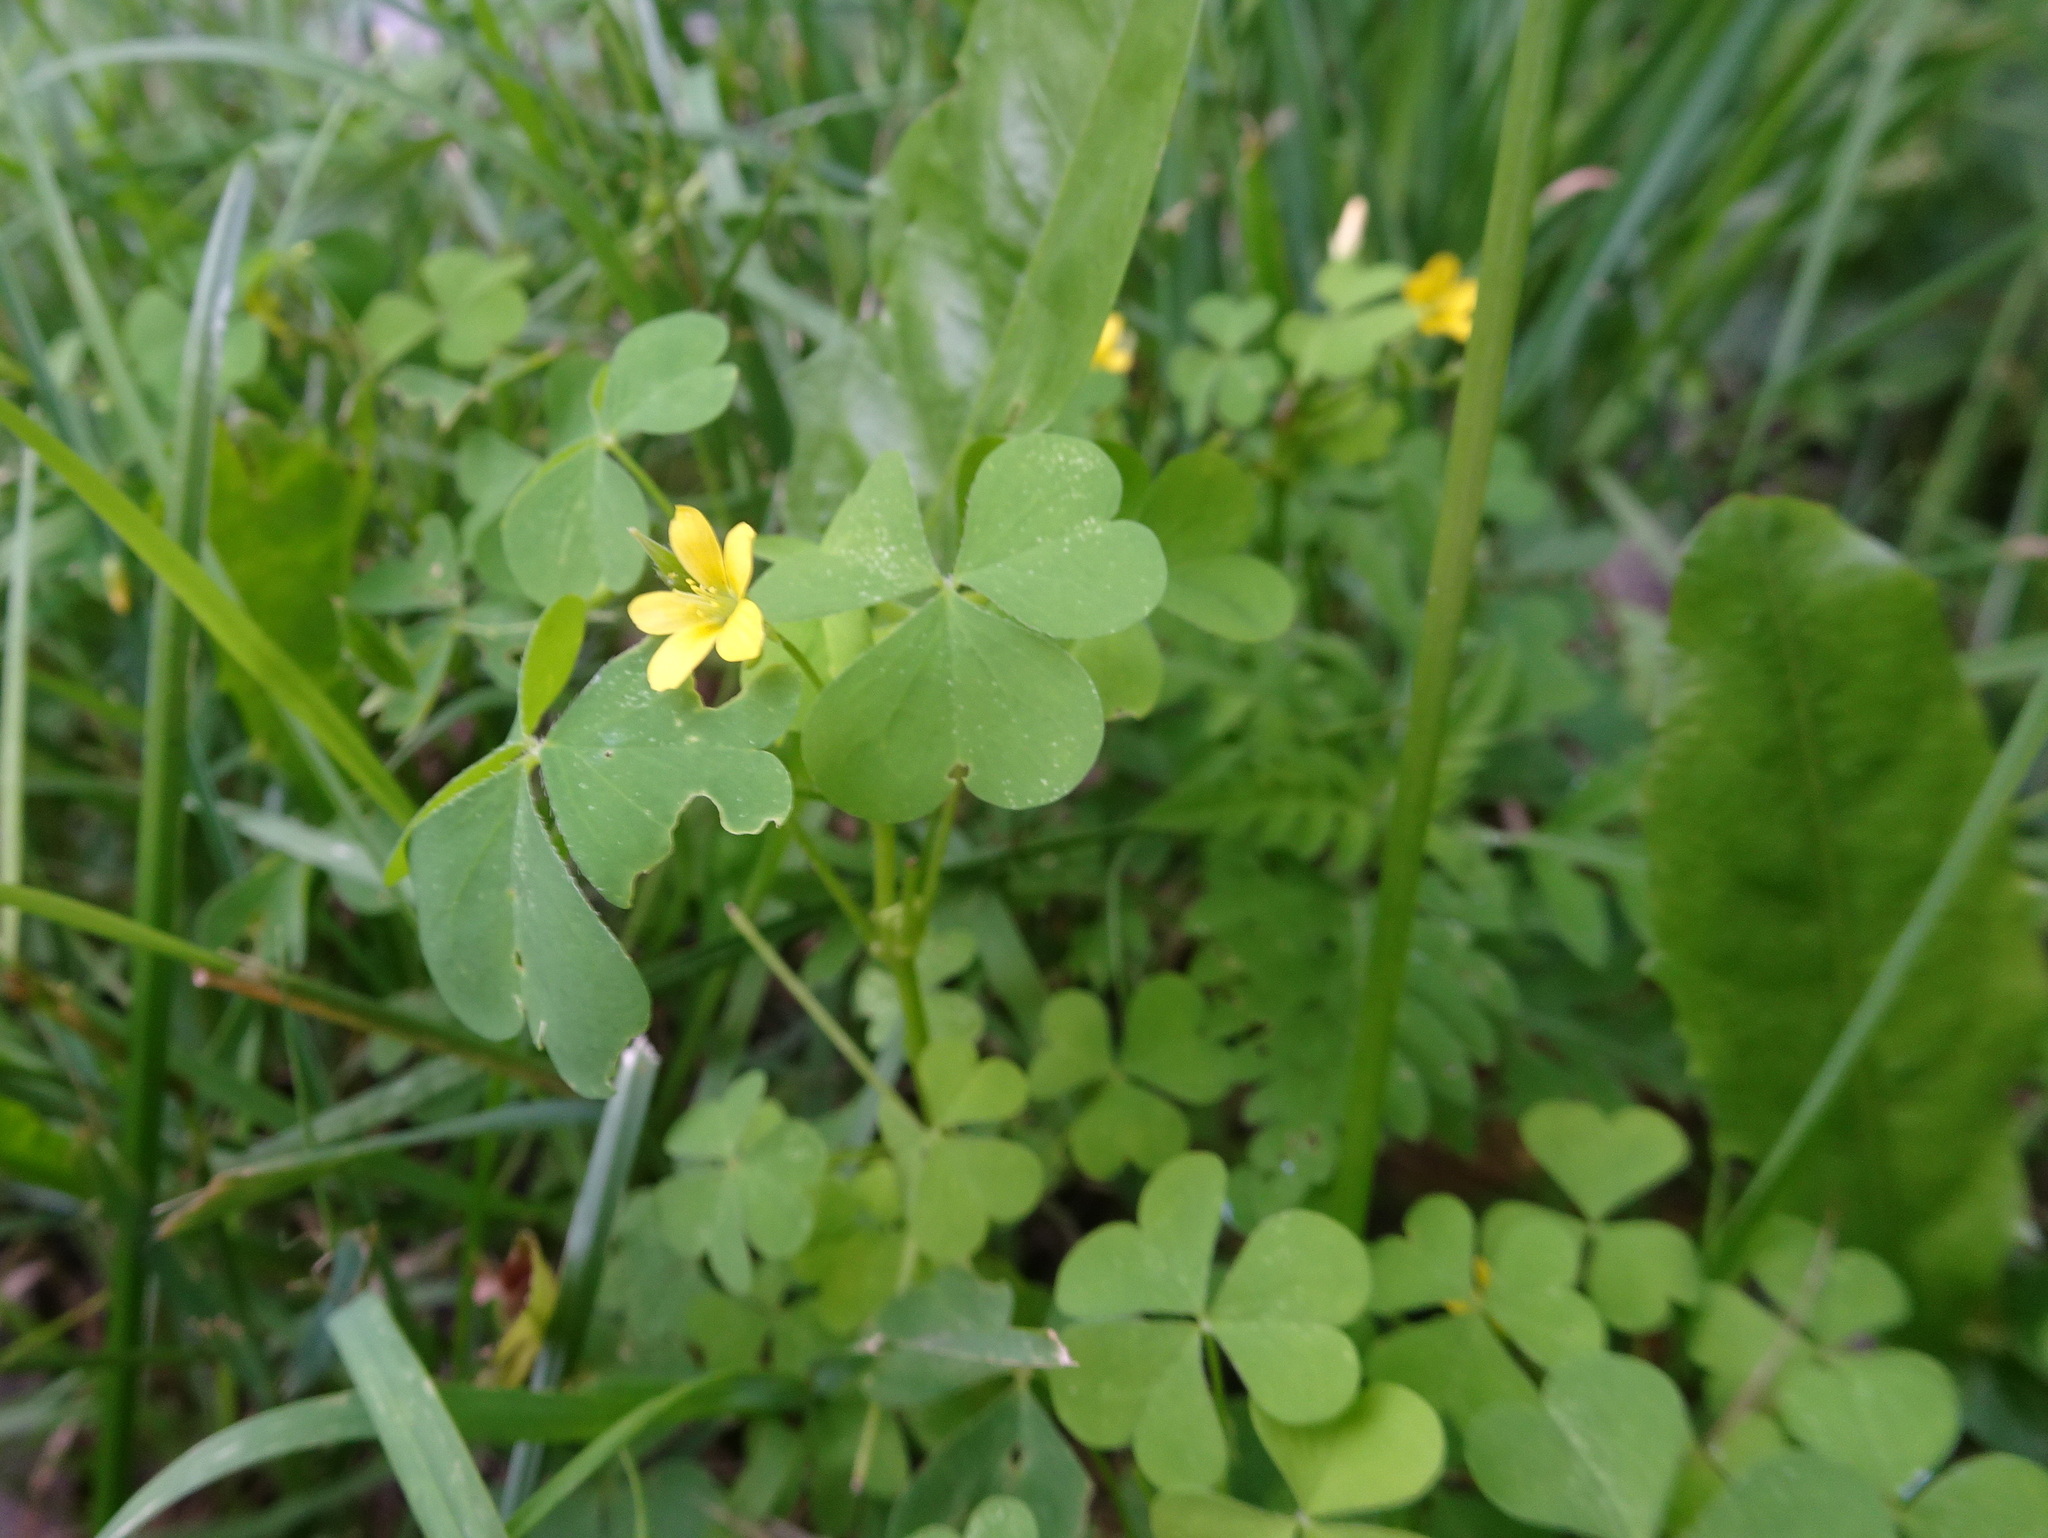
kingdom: Plantae
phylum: Tracheophyta
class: Magnoliopsida
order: Oxalidales
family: Oxalidaceae
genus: Oxalis
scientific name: Oxalis stricta
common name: Upright yellow-sorrel
